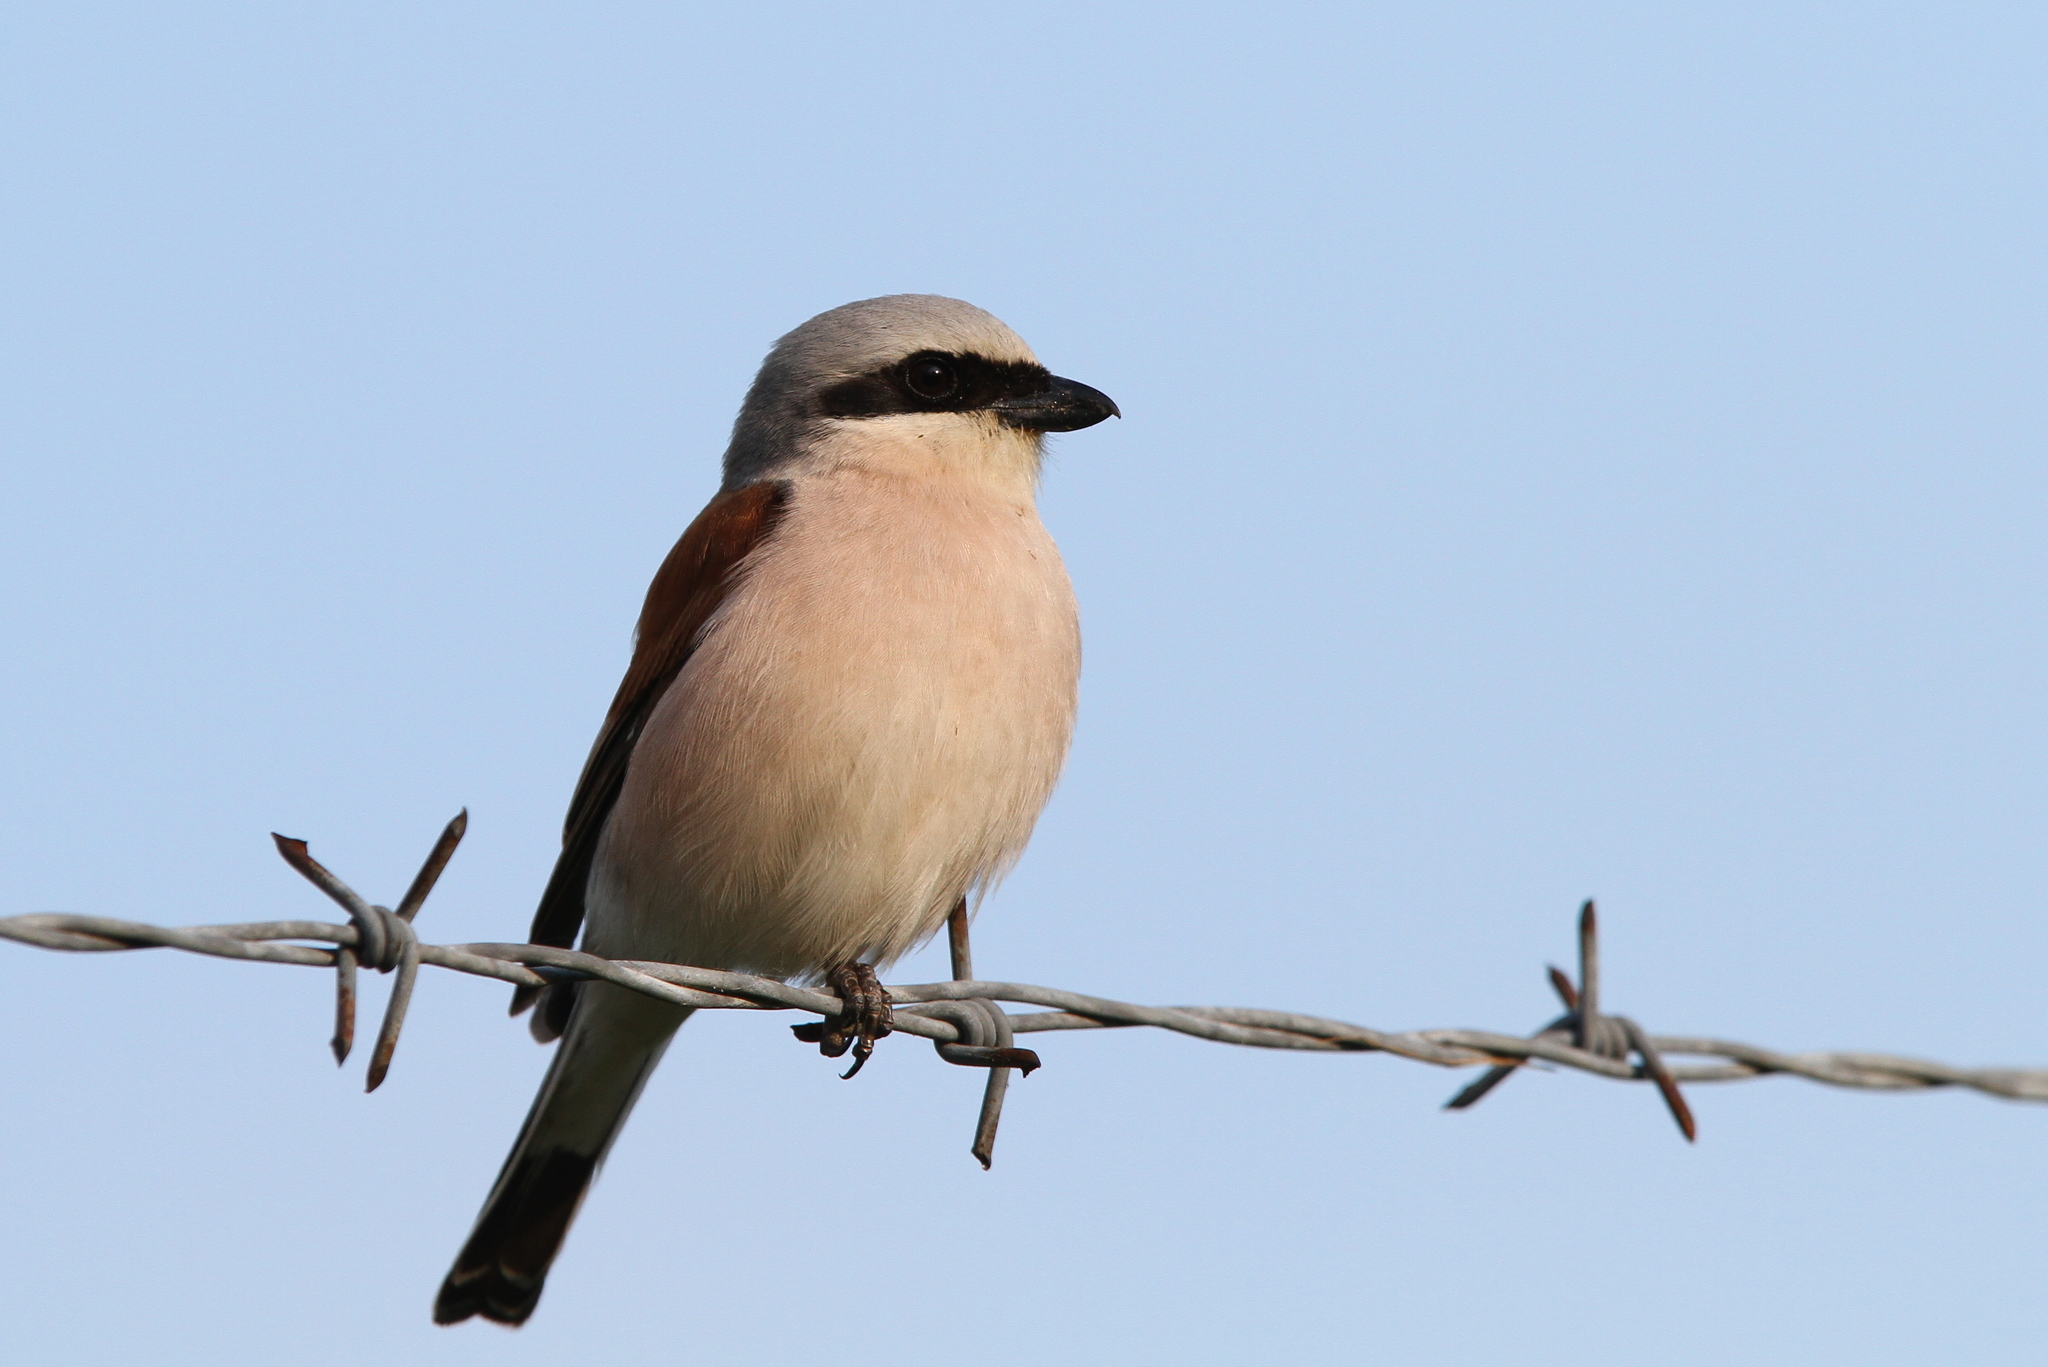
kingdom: Animalia
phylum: Chordata
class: Aves
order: Passeriformes
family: Laniidae
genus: Lanius
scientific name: Lanius collurio
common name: Red-backed shrike
